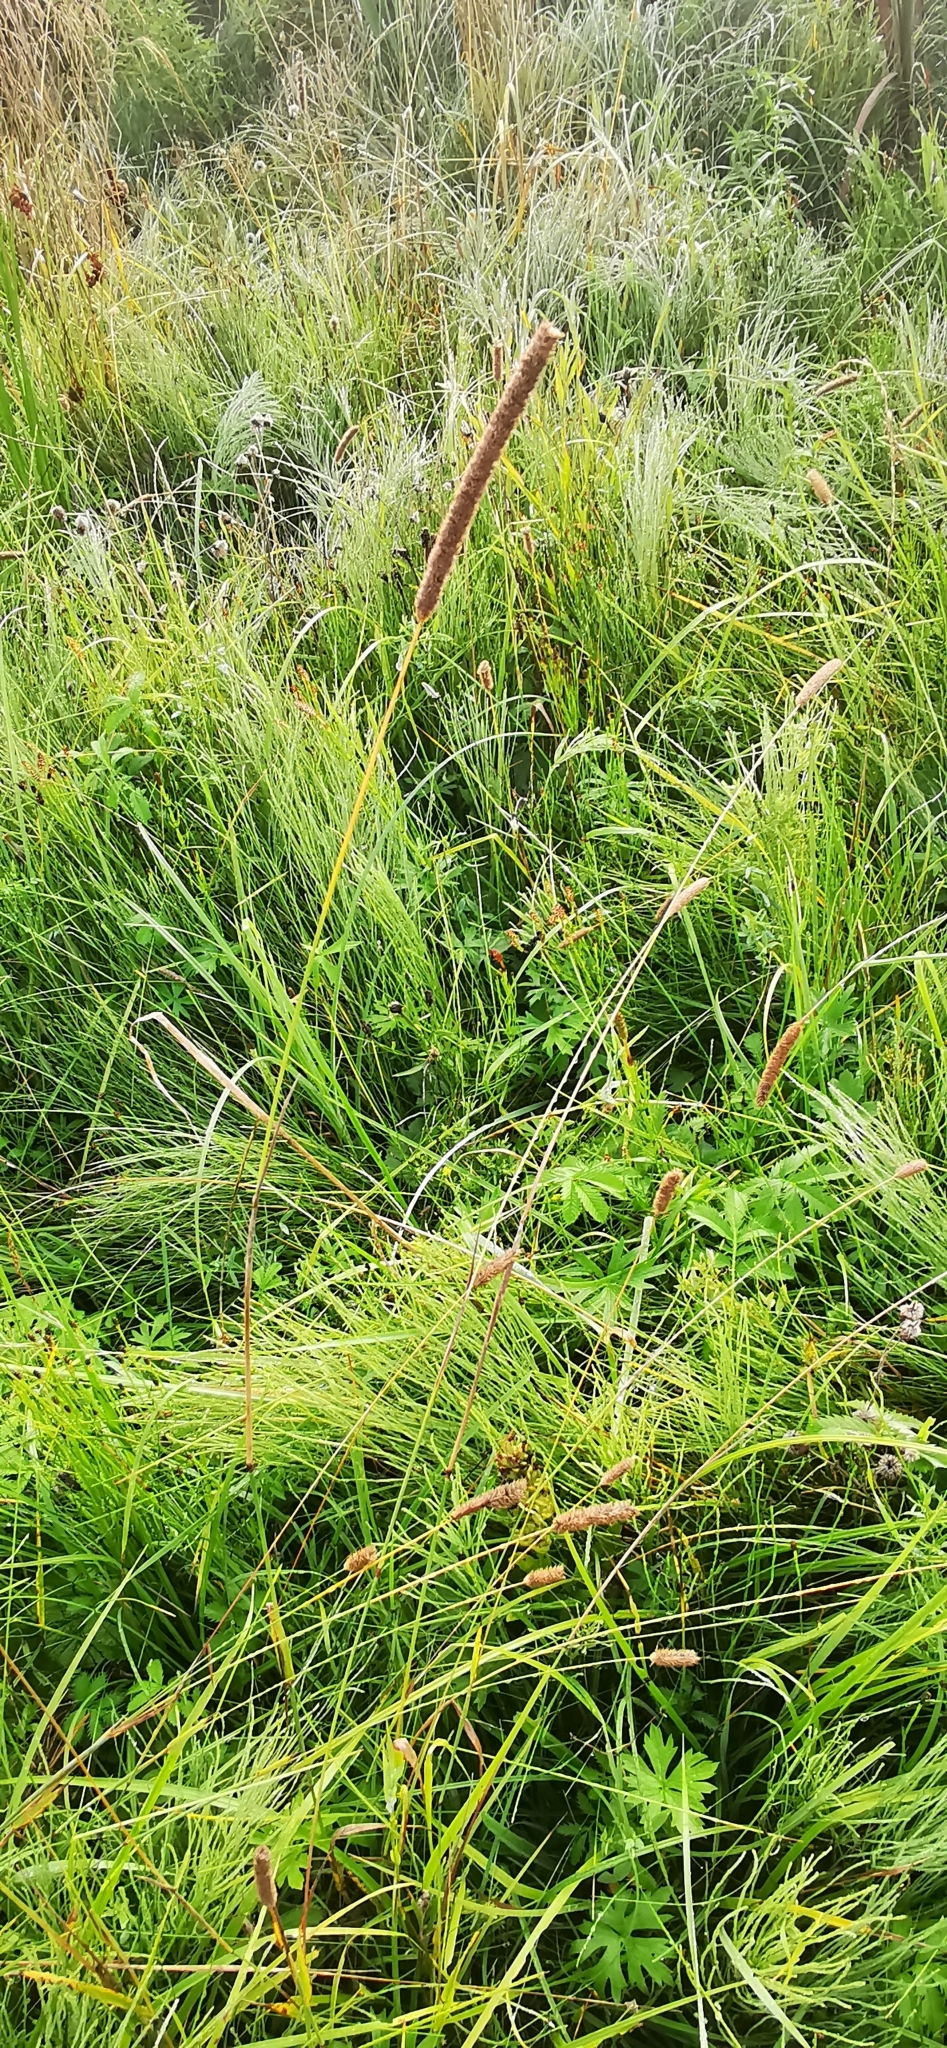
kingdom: Plantae
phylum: Tracheophyta
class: Liliopsida
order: Poales
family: Poaceae
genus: Phleum
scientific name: Phleum pratense
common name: Timothy grass
